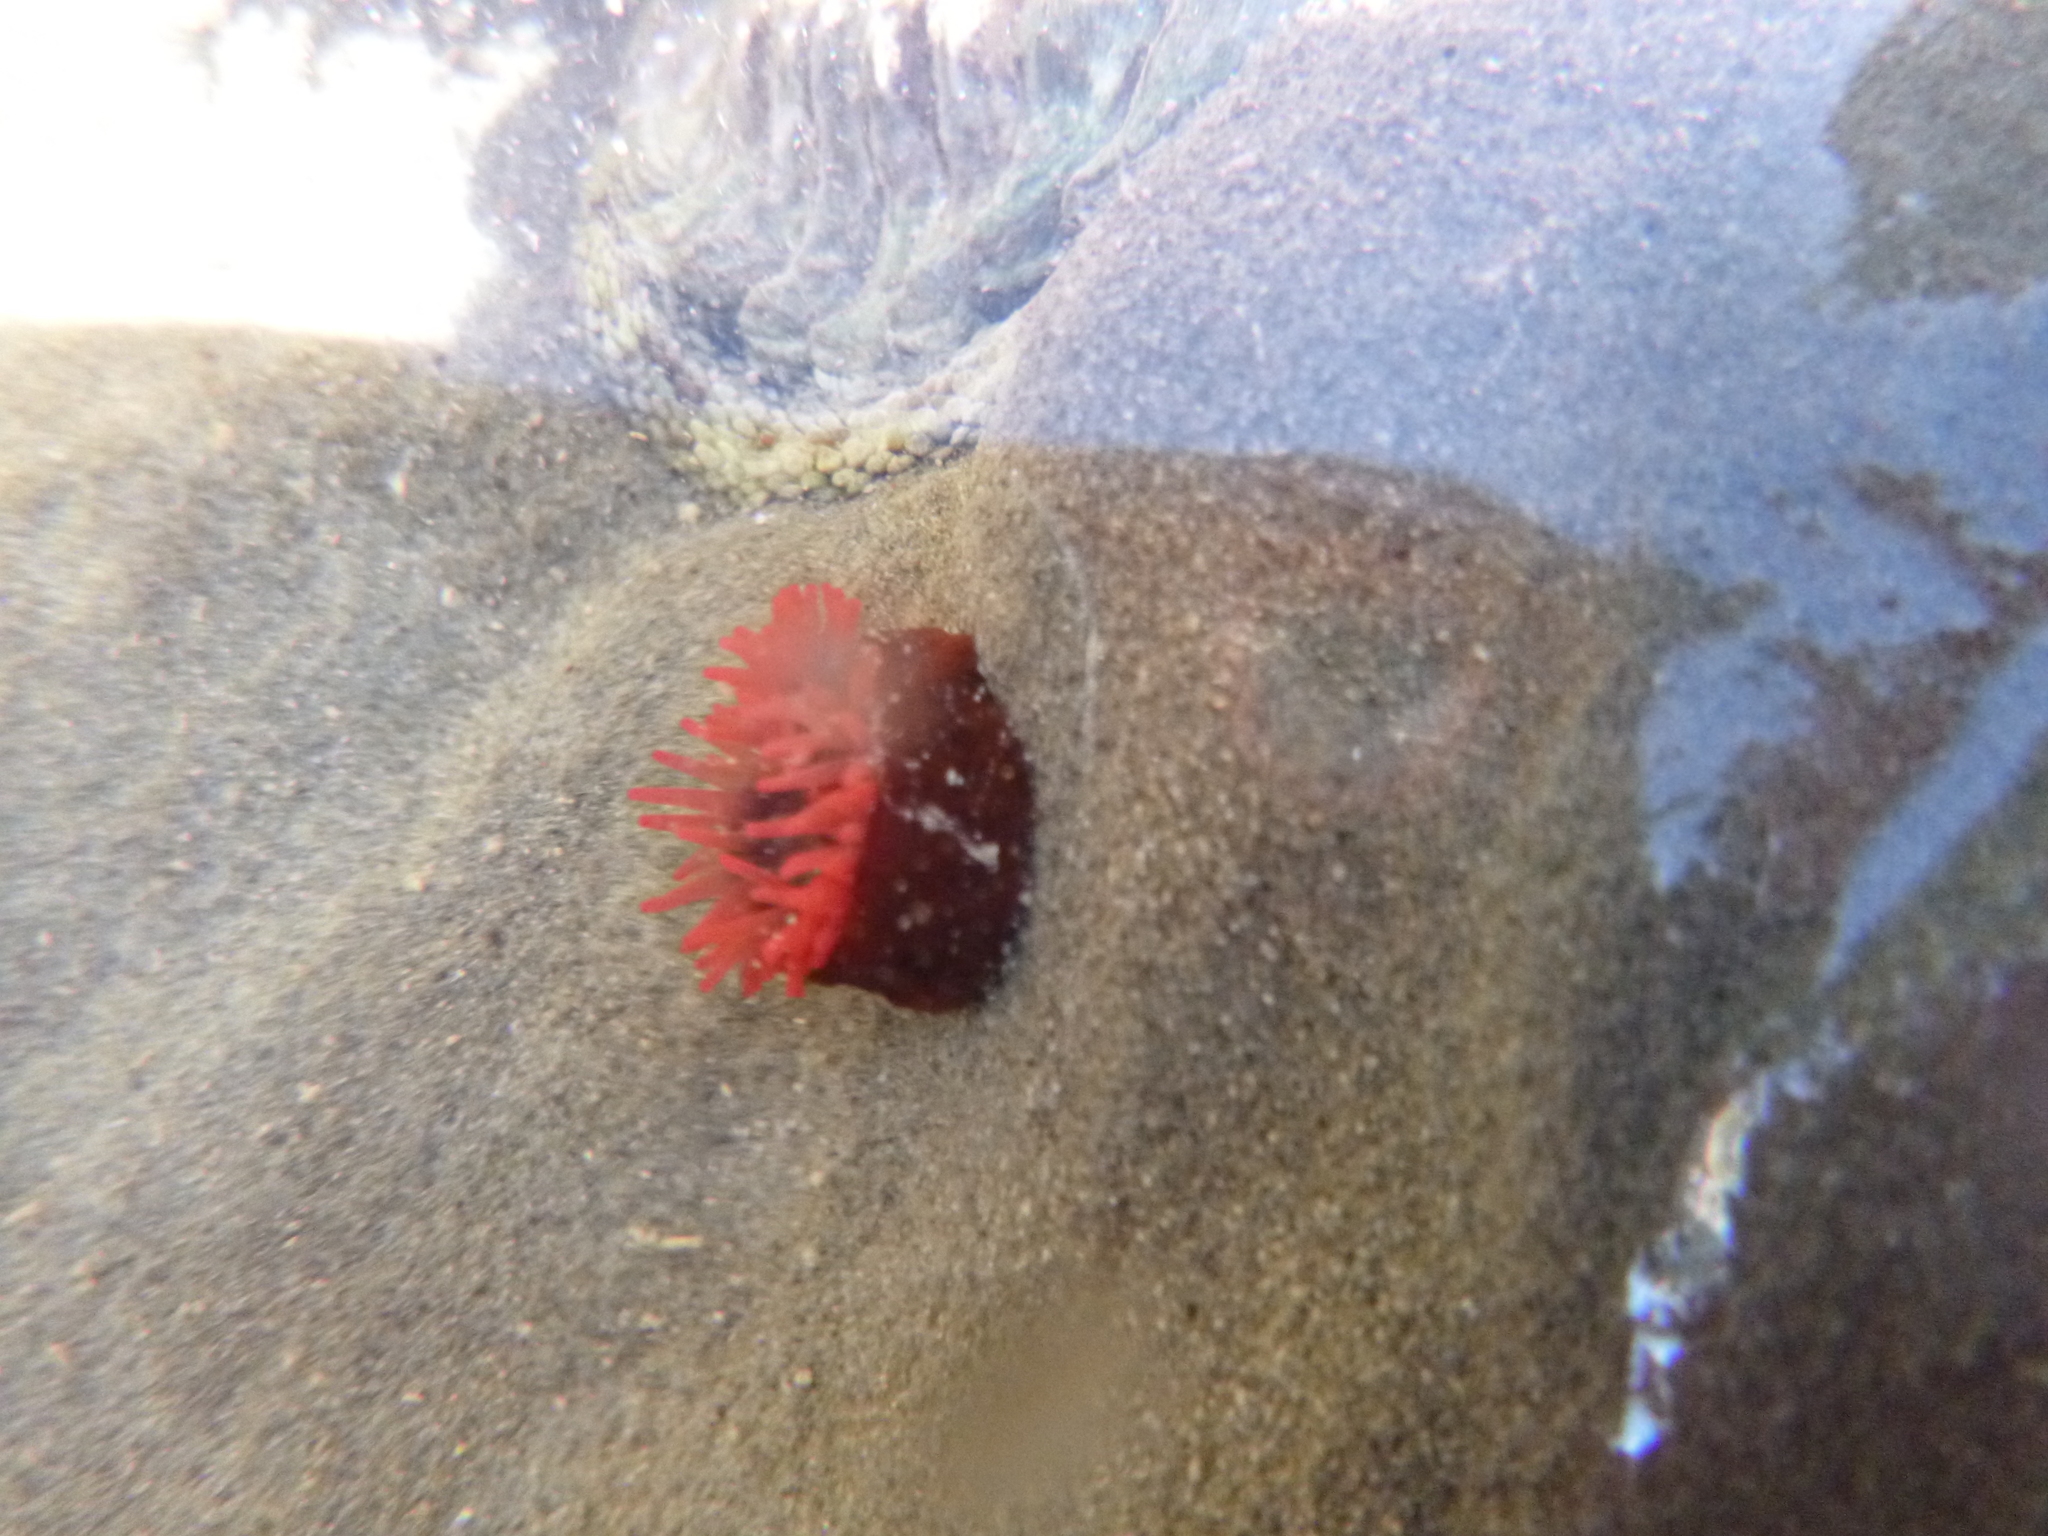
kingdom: Animalia
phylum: Cnidaria
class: Anthozoa
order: Actiniaria
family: Actiniidae
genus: Actinia
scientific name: Actinia tenebrosa
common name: Waratah anemone
